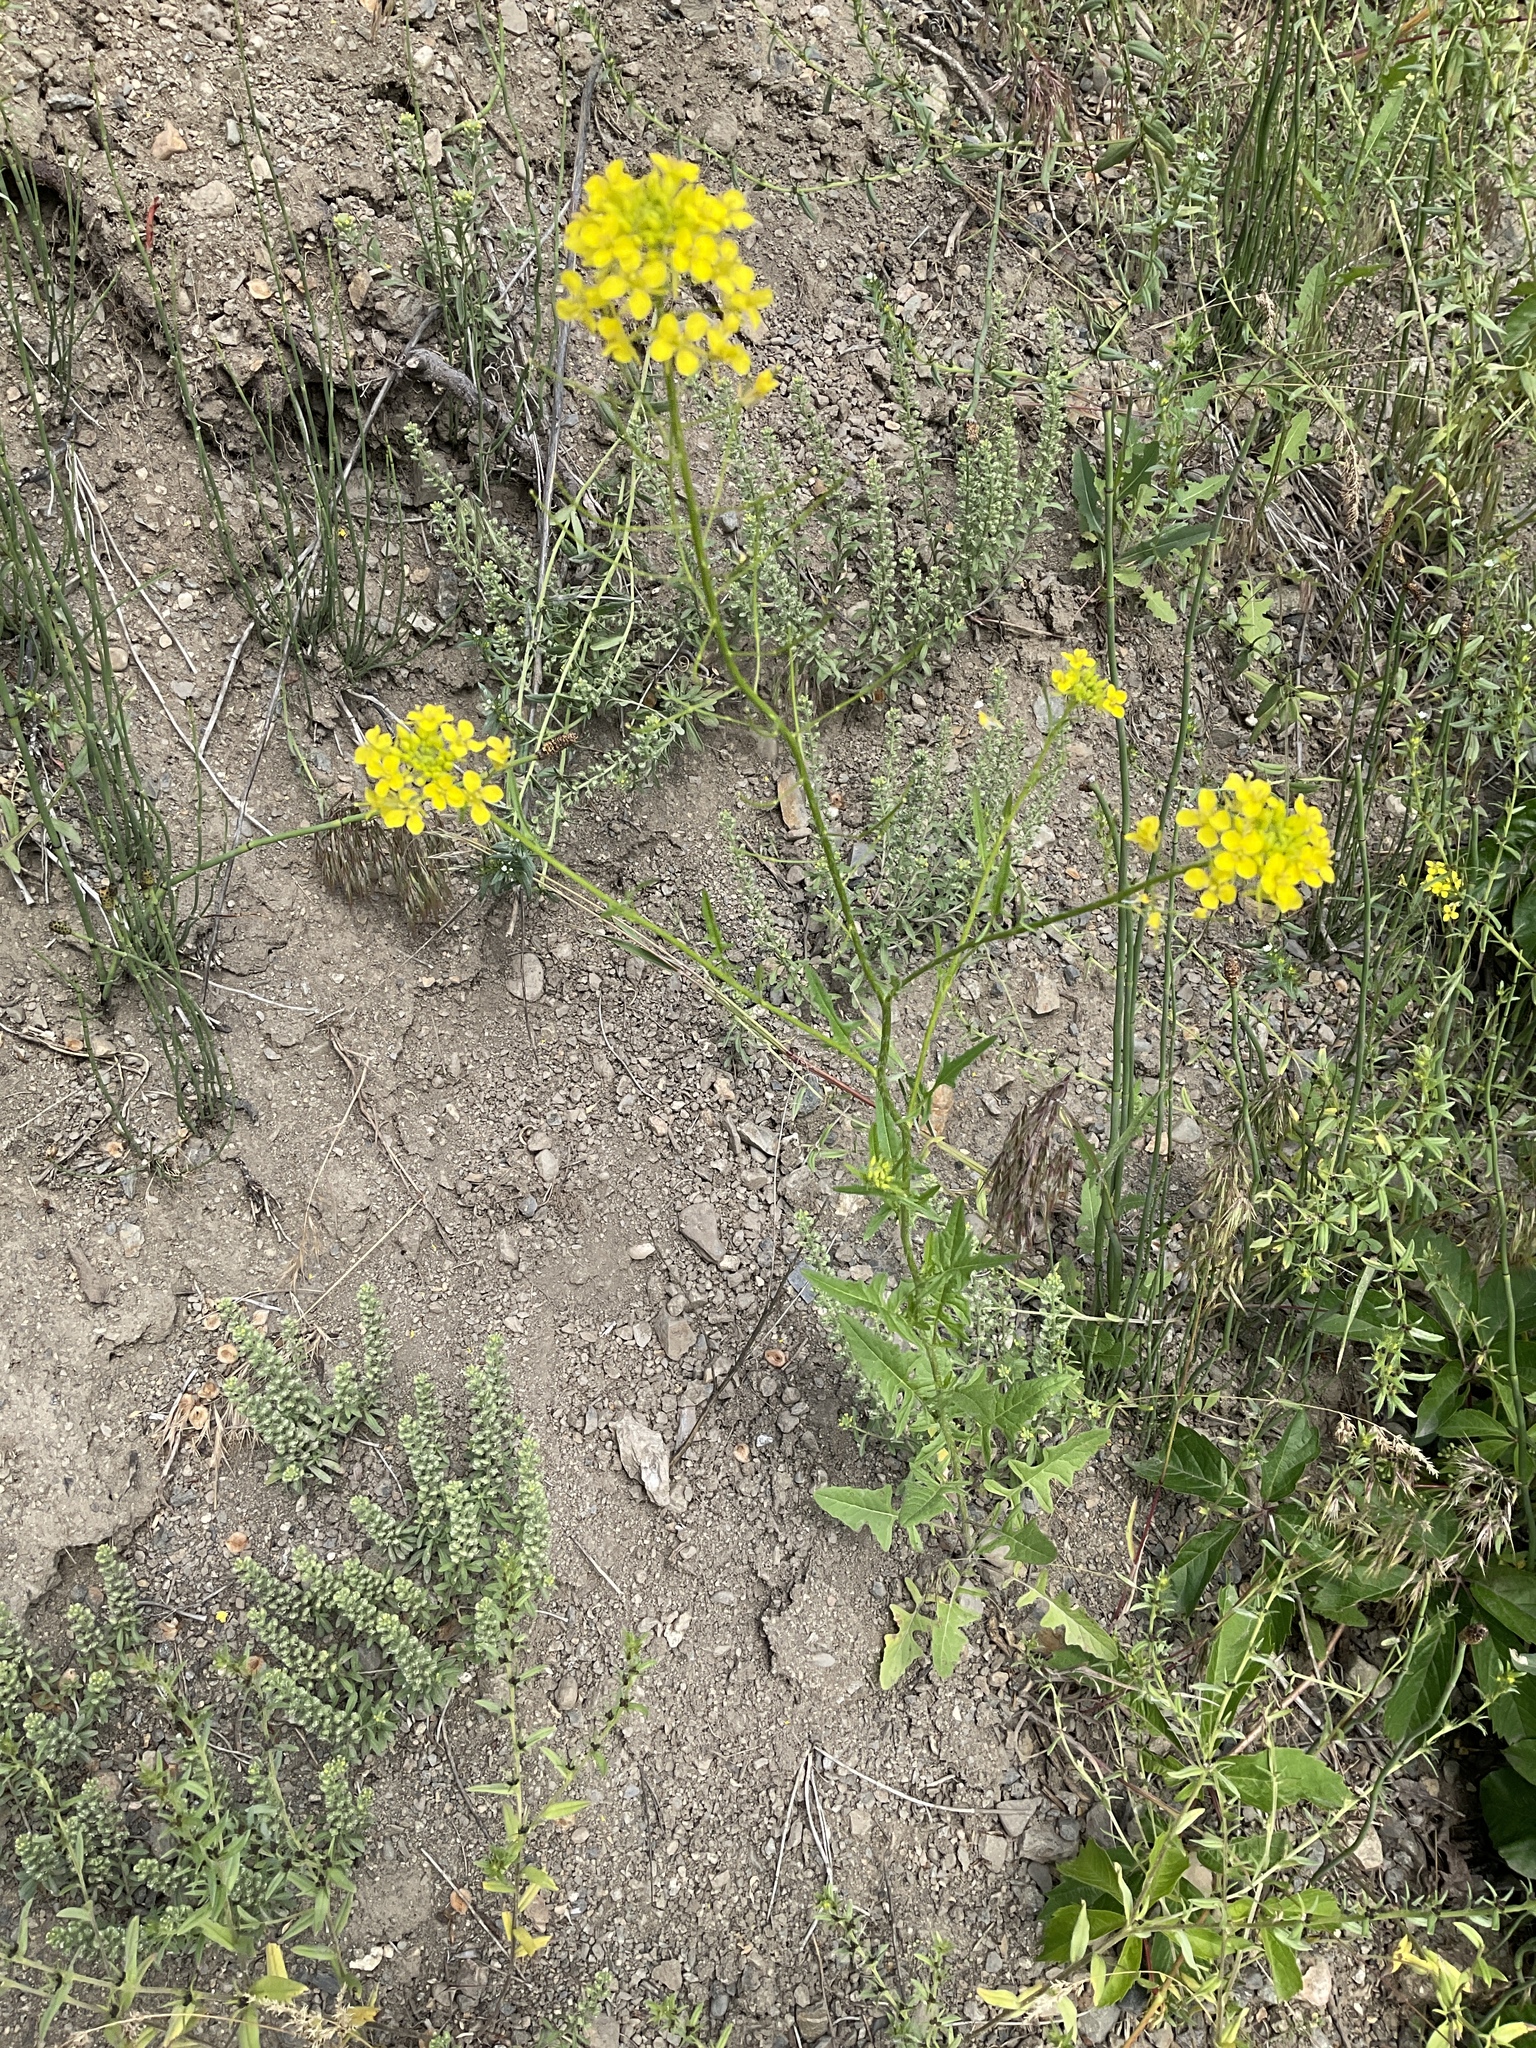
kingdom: Plantae
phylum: Tracheophyta
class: Magnoliopsida
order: Brassicales
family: Brassicaceae
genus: Sisymbrium
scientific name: Sisymbrium loeselii
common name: False london-rocket
